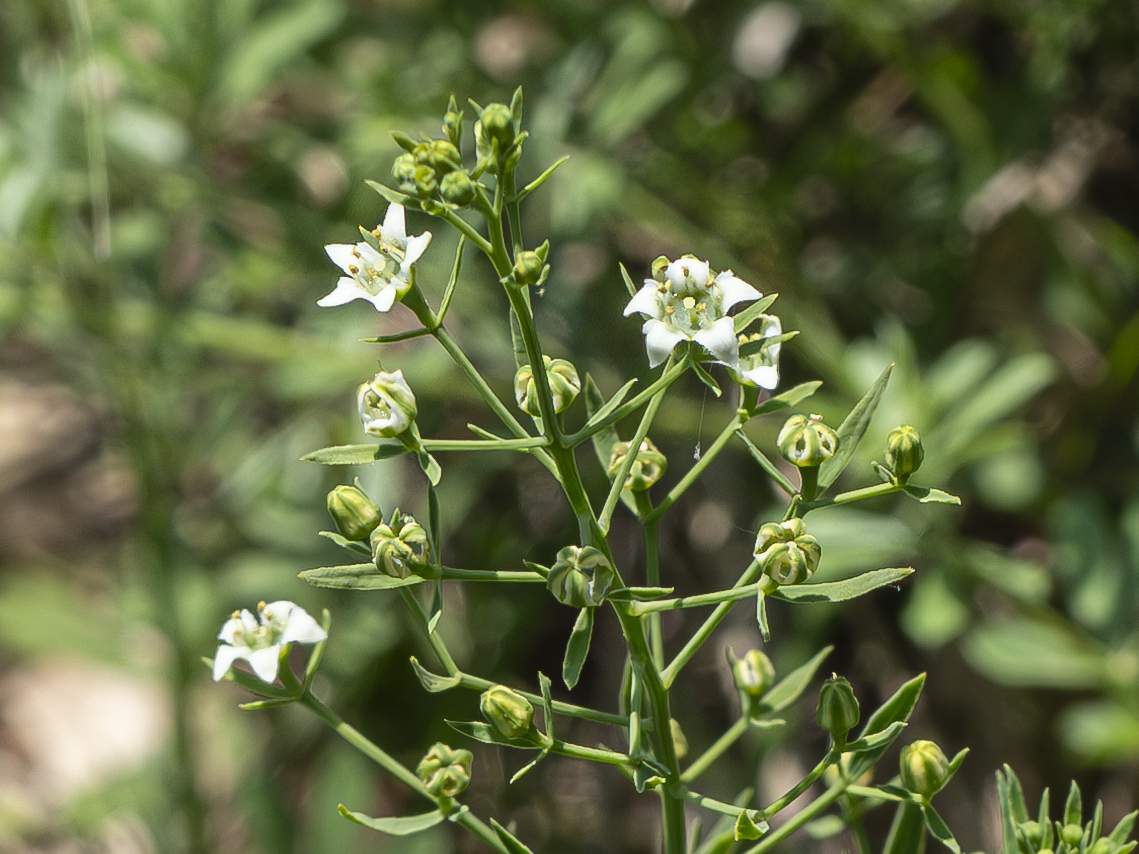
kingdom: Plantae
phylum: Tracheophyta
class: Magnoliopsida
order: Santalales
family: Thesiaceae
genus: Thesium
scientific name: Thesium linophyllon
